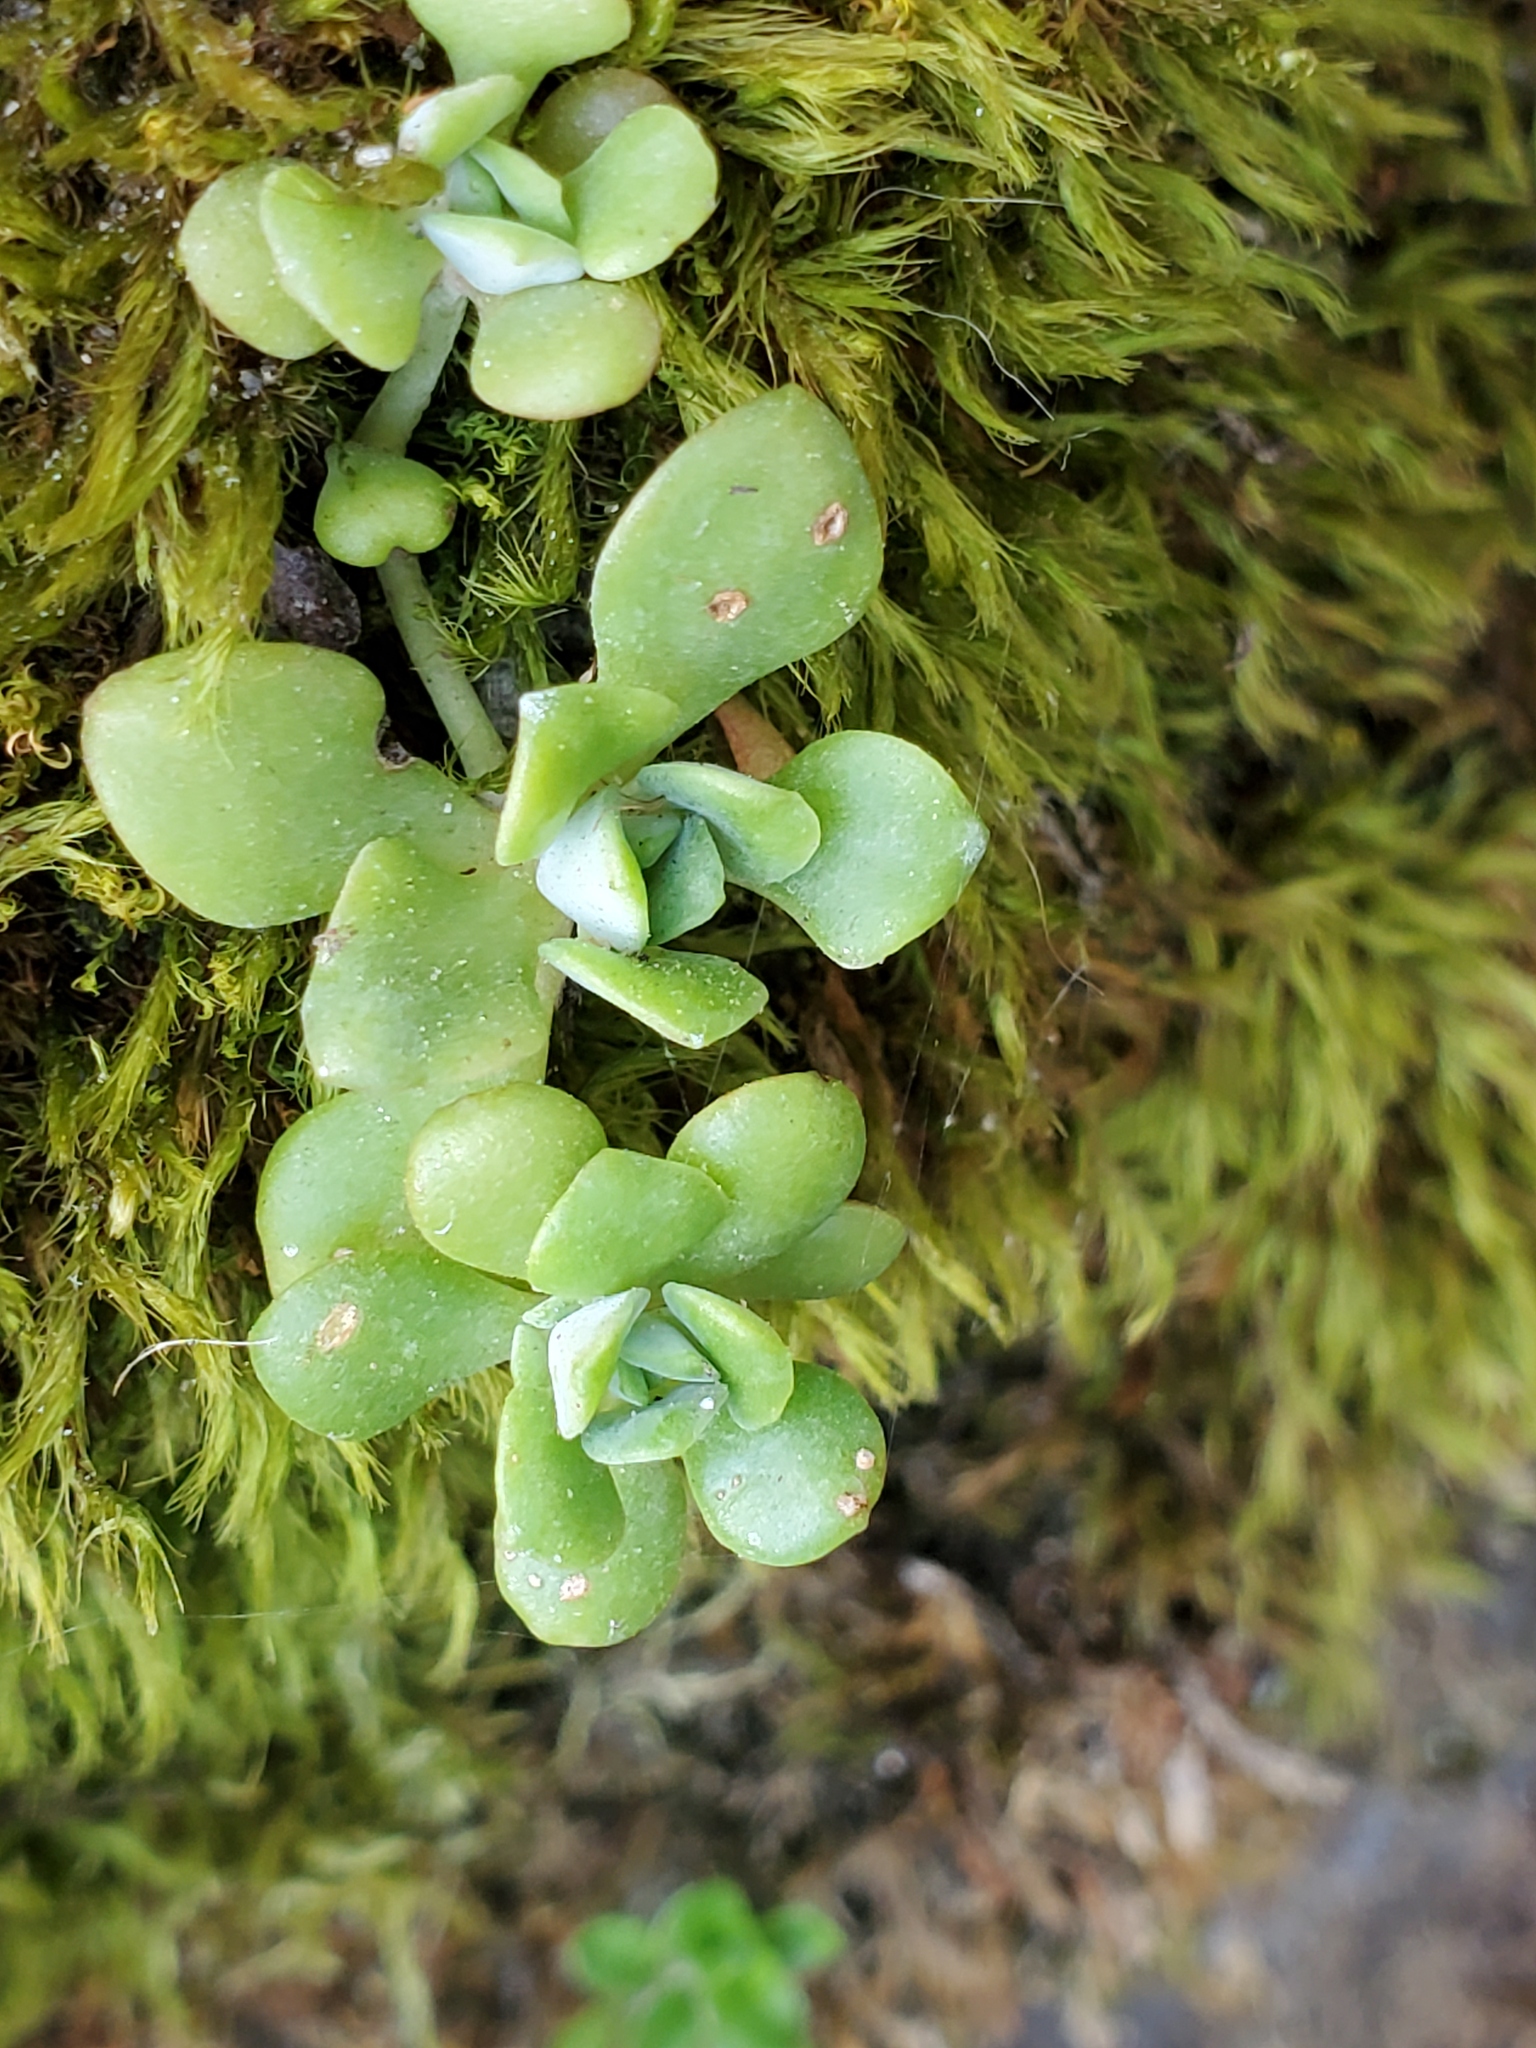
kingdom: Plantae
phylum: Tracheophyta
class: Magnoliopsida
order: Saxifragales
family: Crassulaceae
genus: Sedum
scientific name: Sedum spathulifolium
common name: Colorado stonecrop
